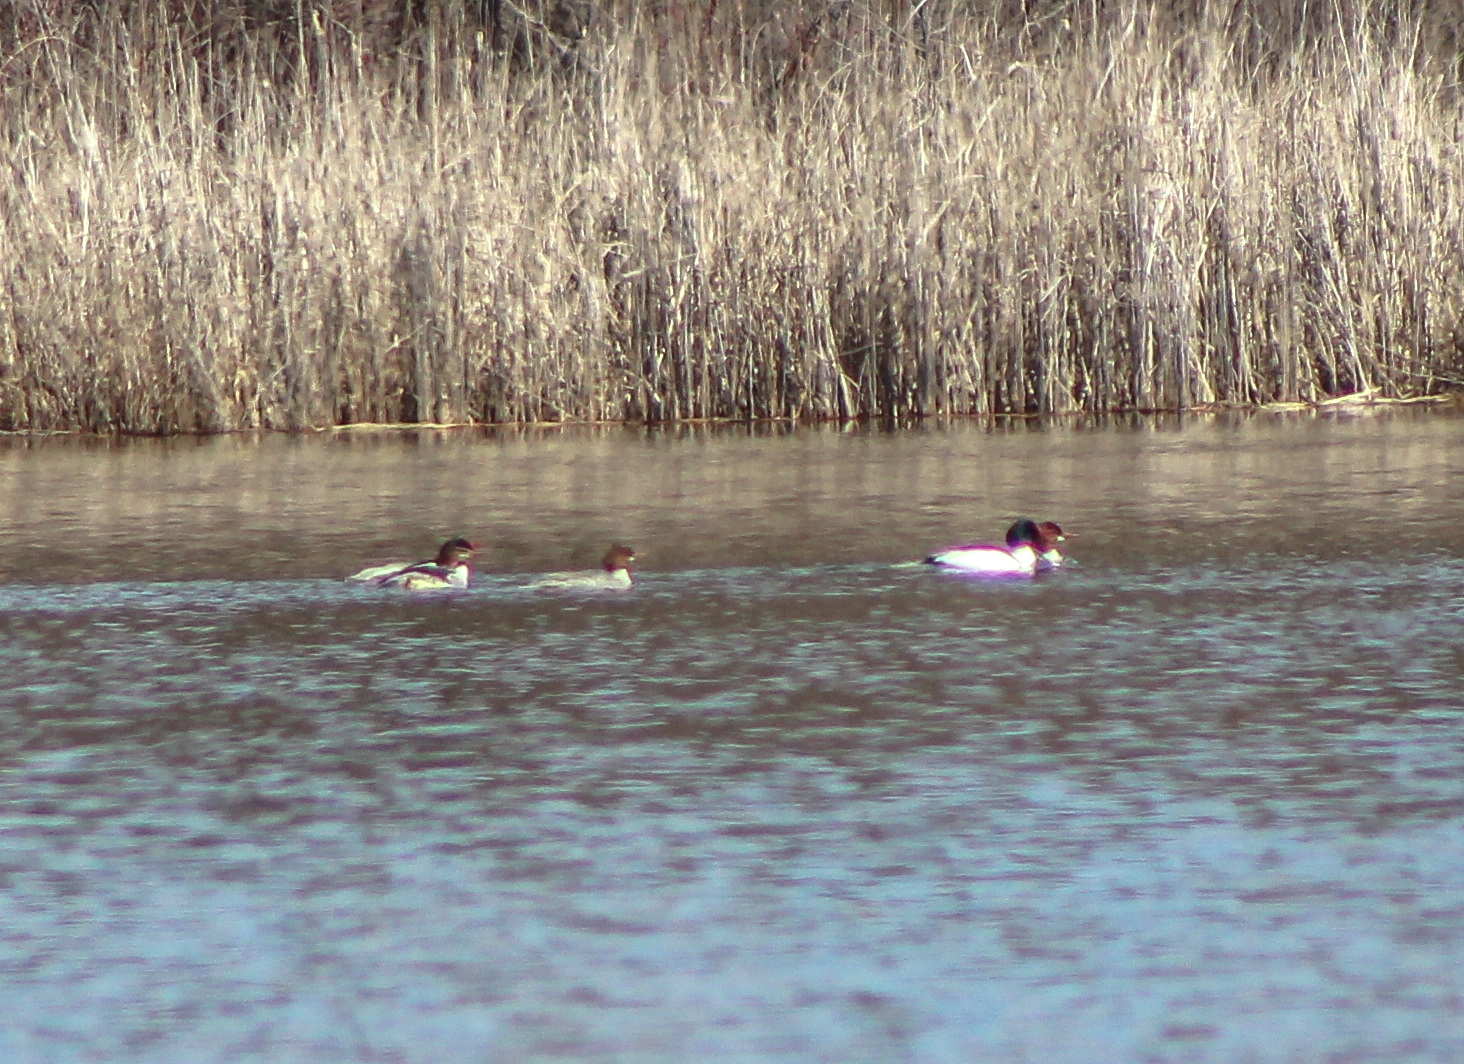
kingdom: Animalia
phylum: Chordata
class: Aves
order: Anseriformes
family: Anatidae
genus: Mergus
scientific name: Mergus merganser
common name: Common merganser
